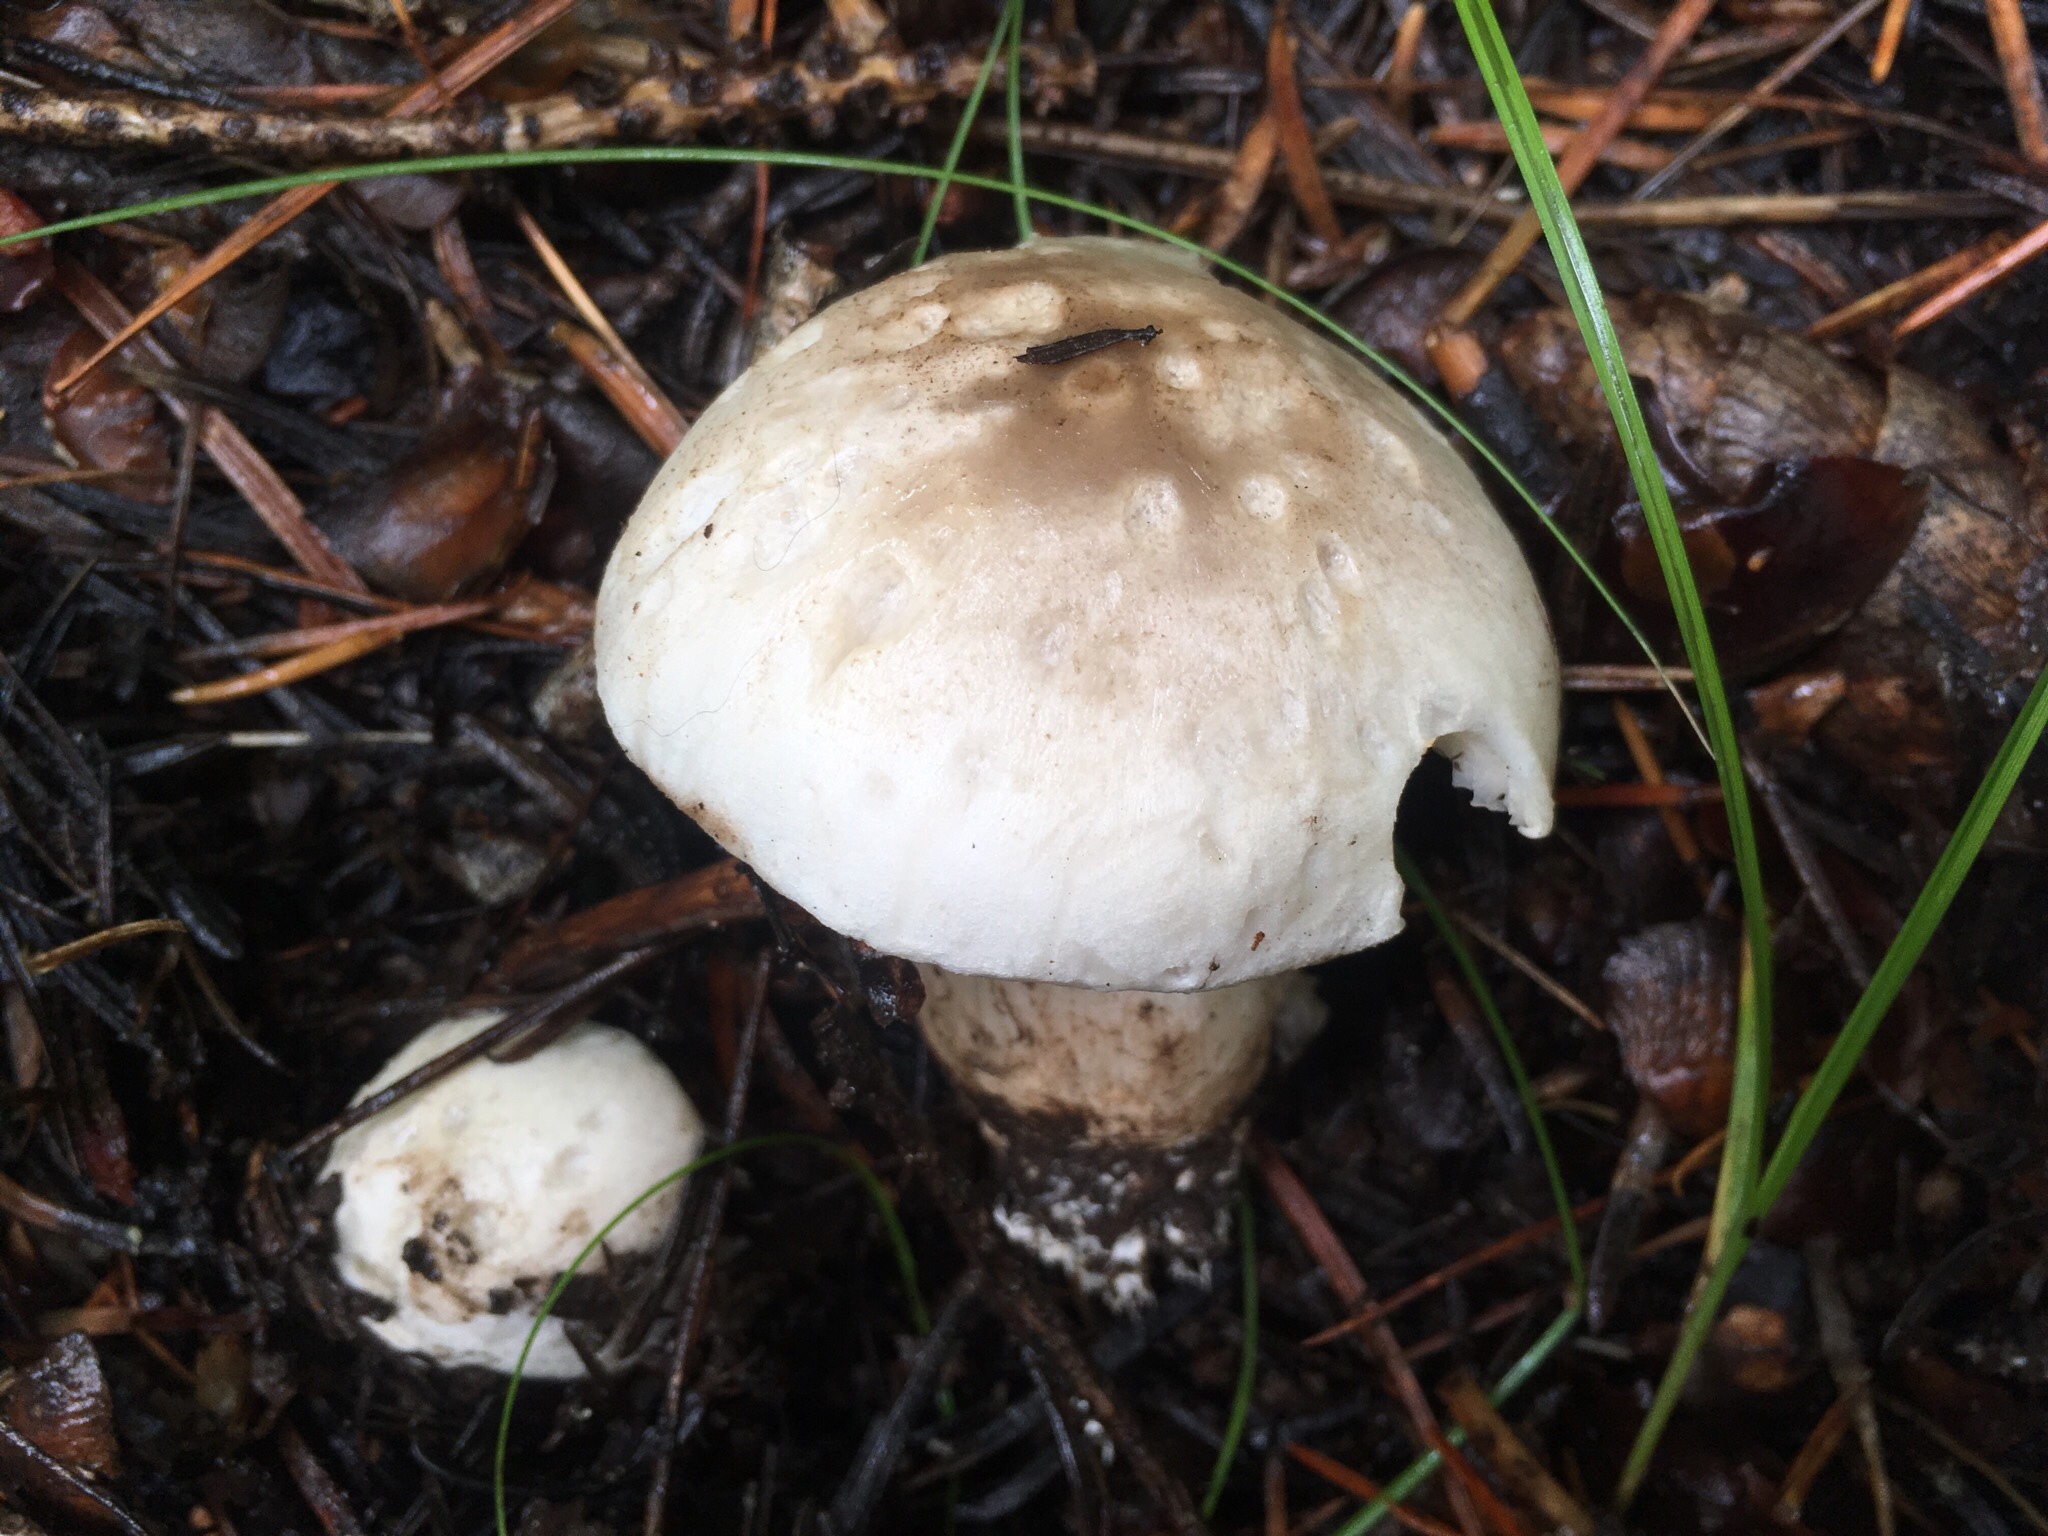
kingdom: Fungi
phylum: Basidiomycota
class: Agaricomycetes
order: Agaricales
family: Tricholomataceae
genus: Tricholoma
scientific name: Tricholoma smithii
